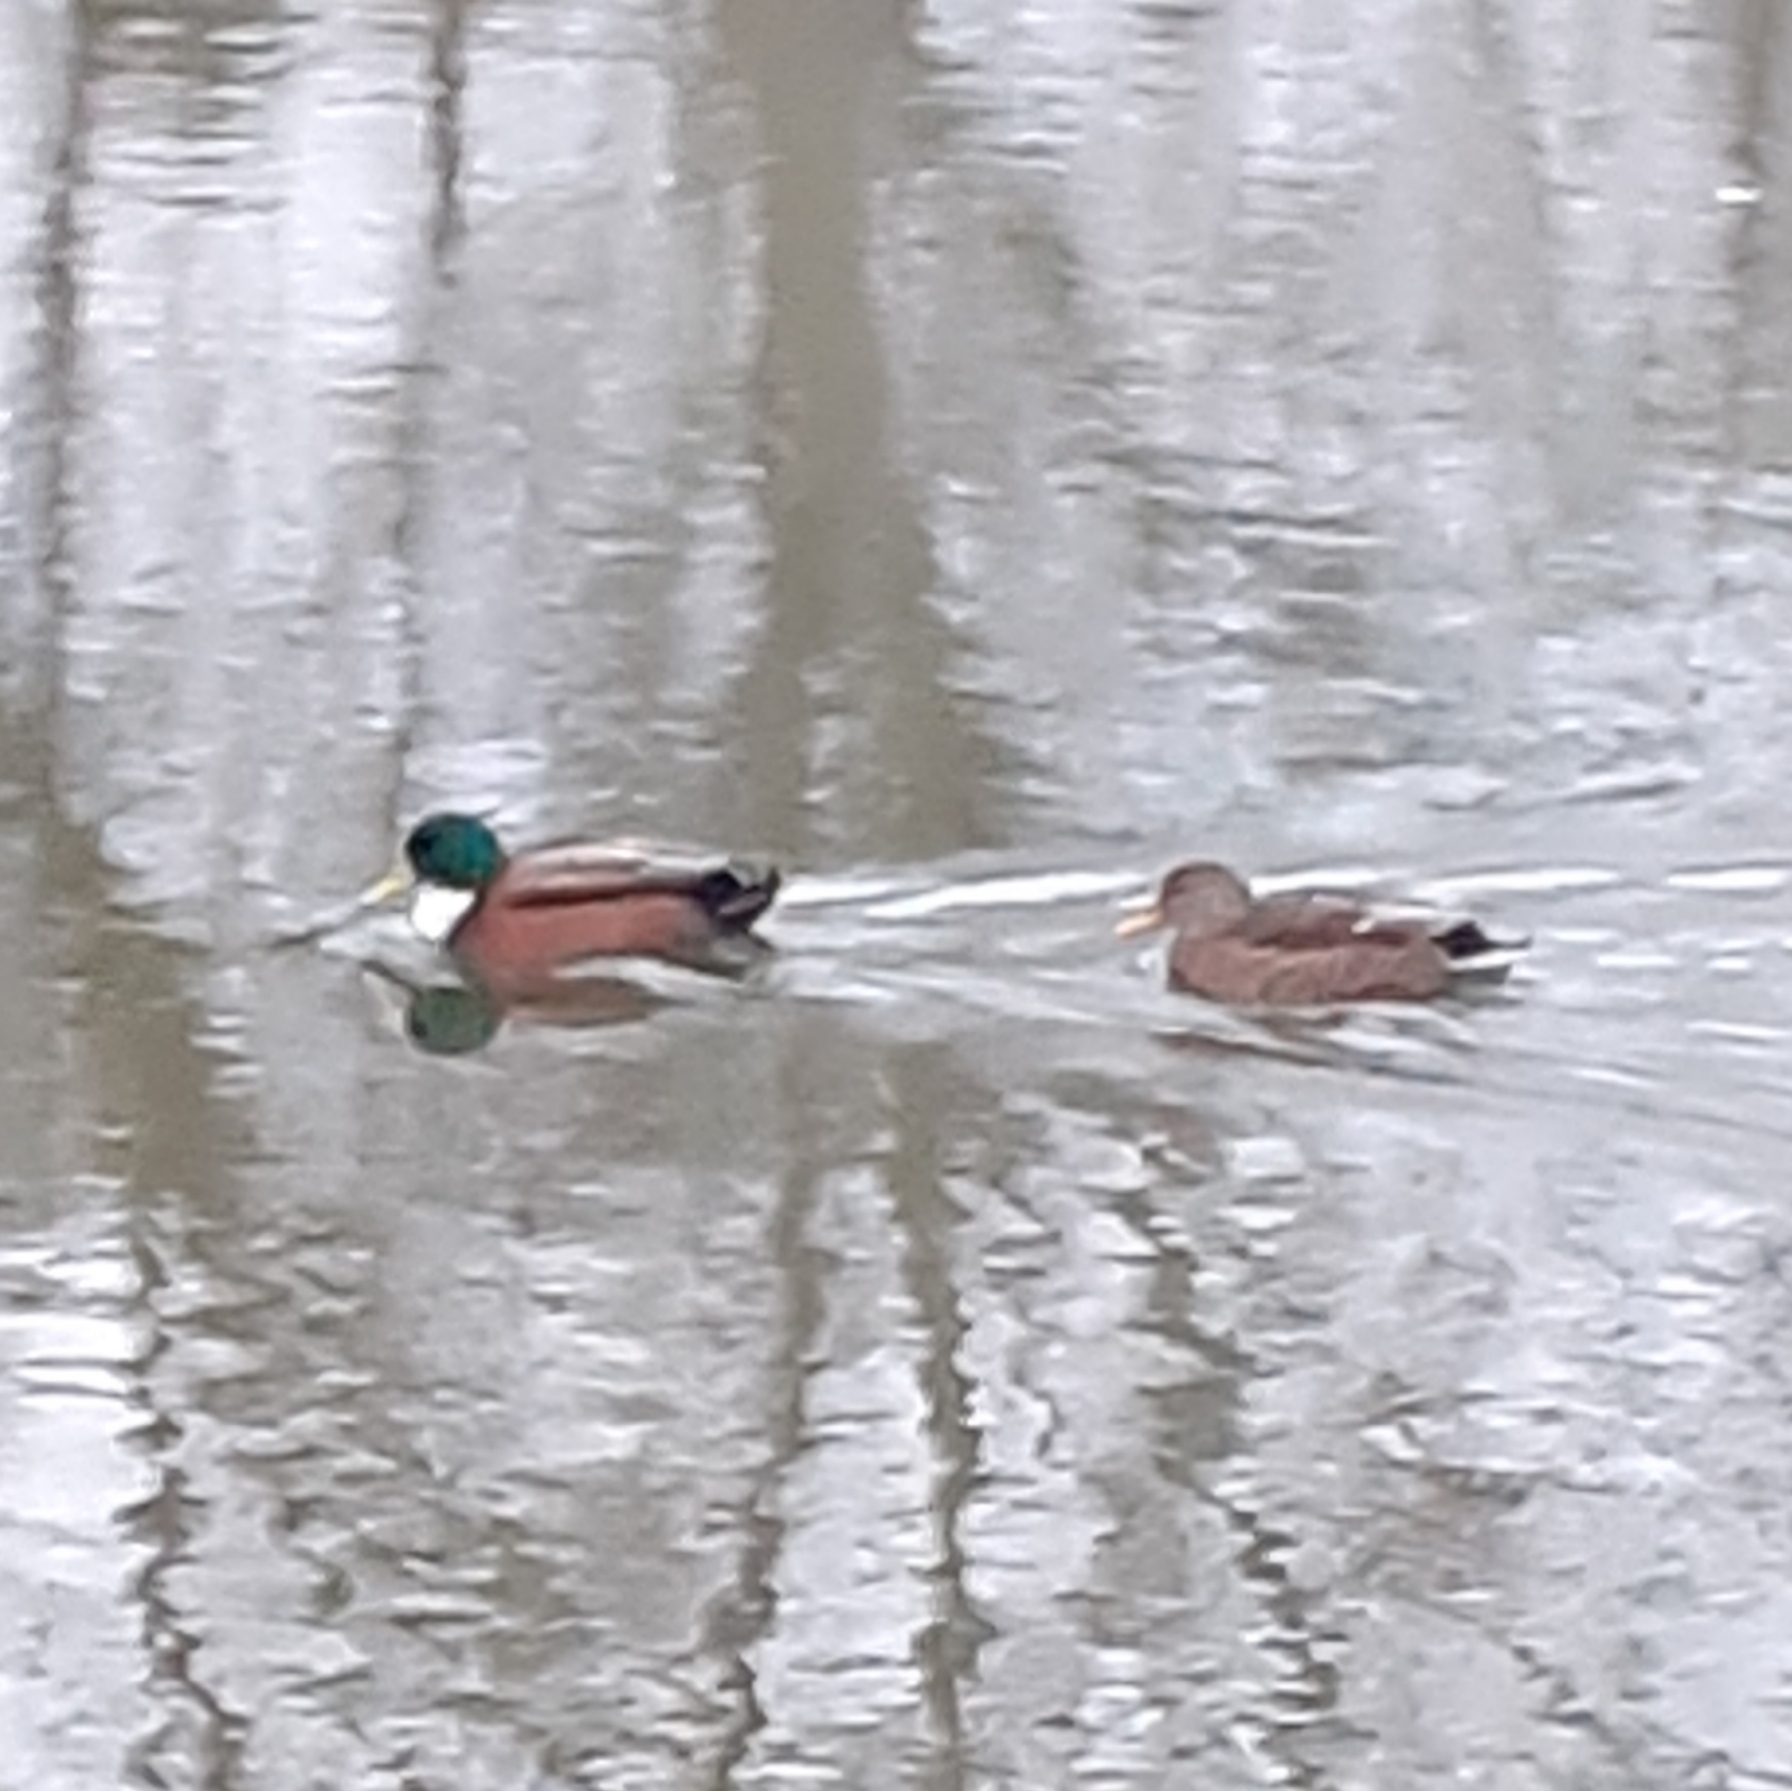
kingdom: Animalia
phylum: Chordata
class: Aves
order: Anseriformes
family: Anatidae
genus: Anas
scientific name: Anas platyrhynchos
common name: Mallard
